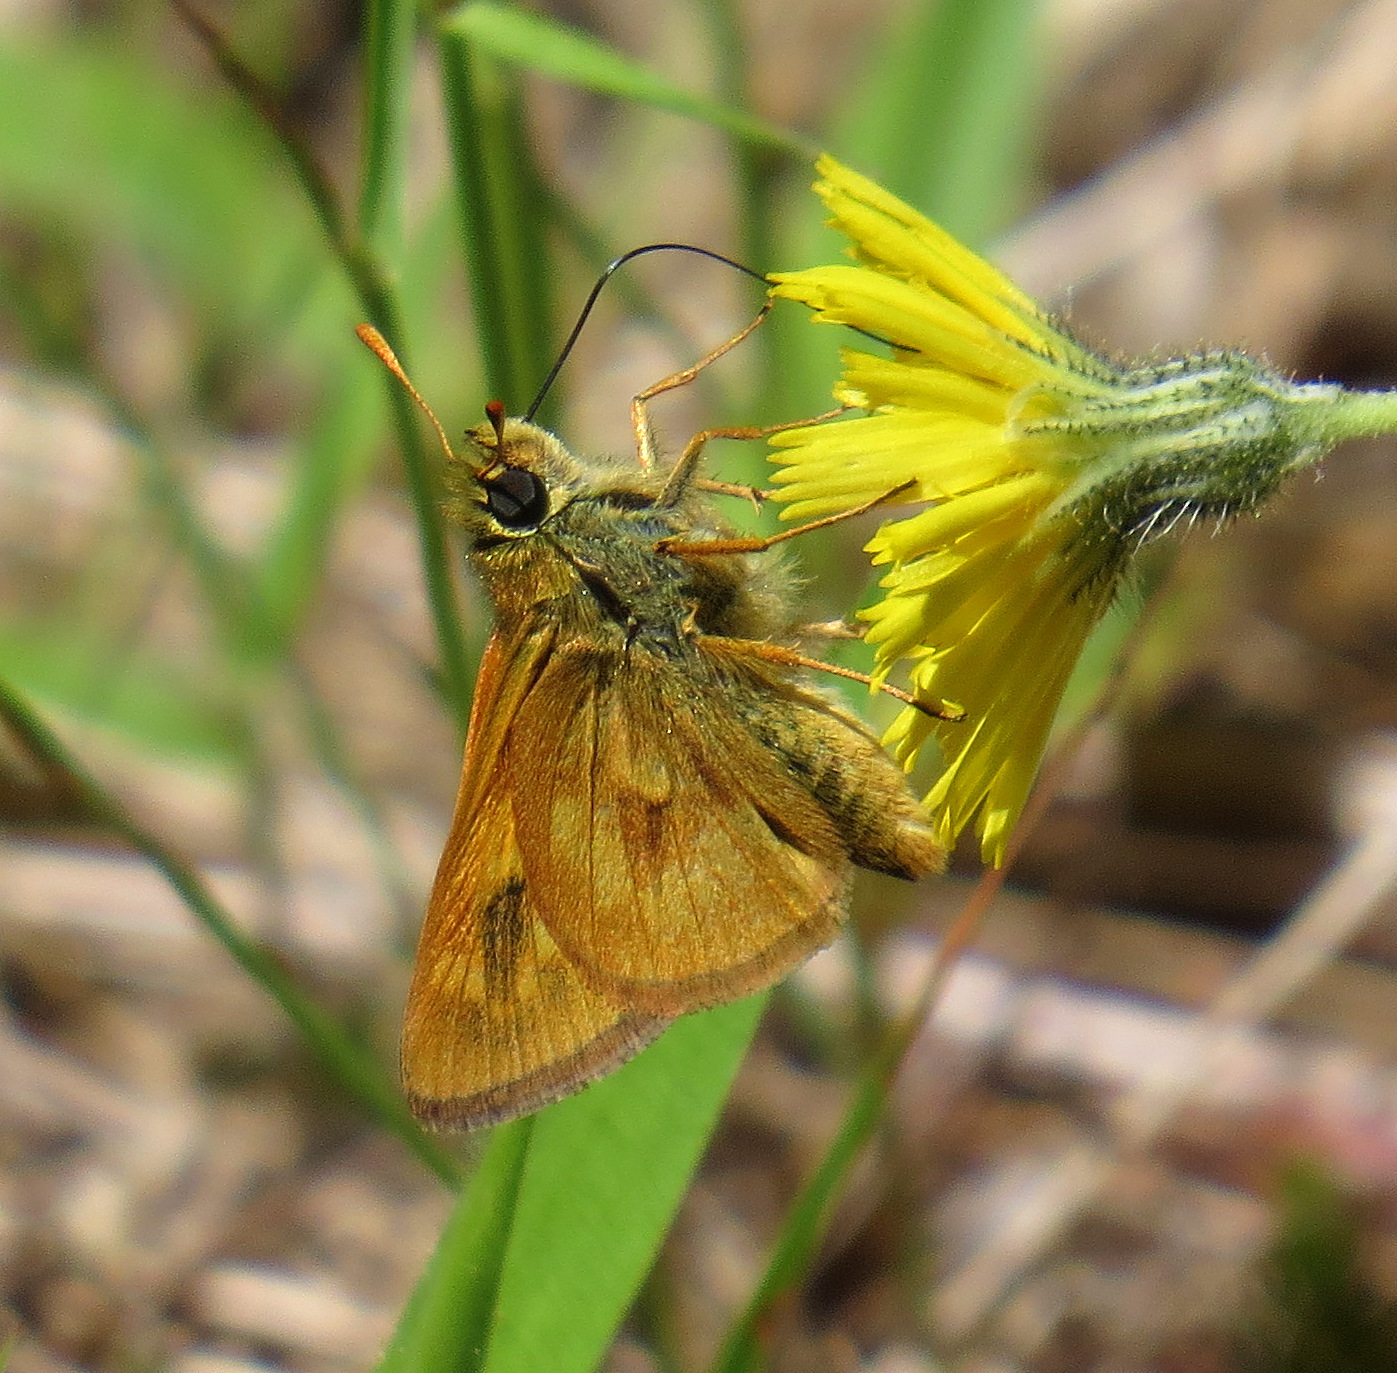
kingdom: Animalia
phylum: Arthropoda
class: Insecta
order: Lepidoptera
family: Hesperiidae
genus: Polites
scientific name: Polites mystic
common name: Long dash
